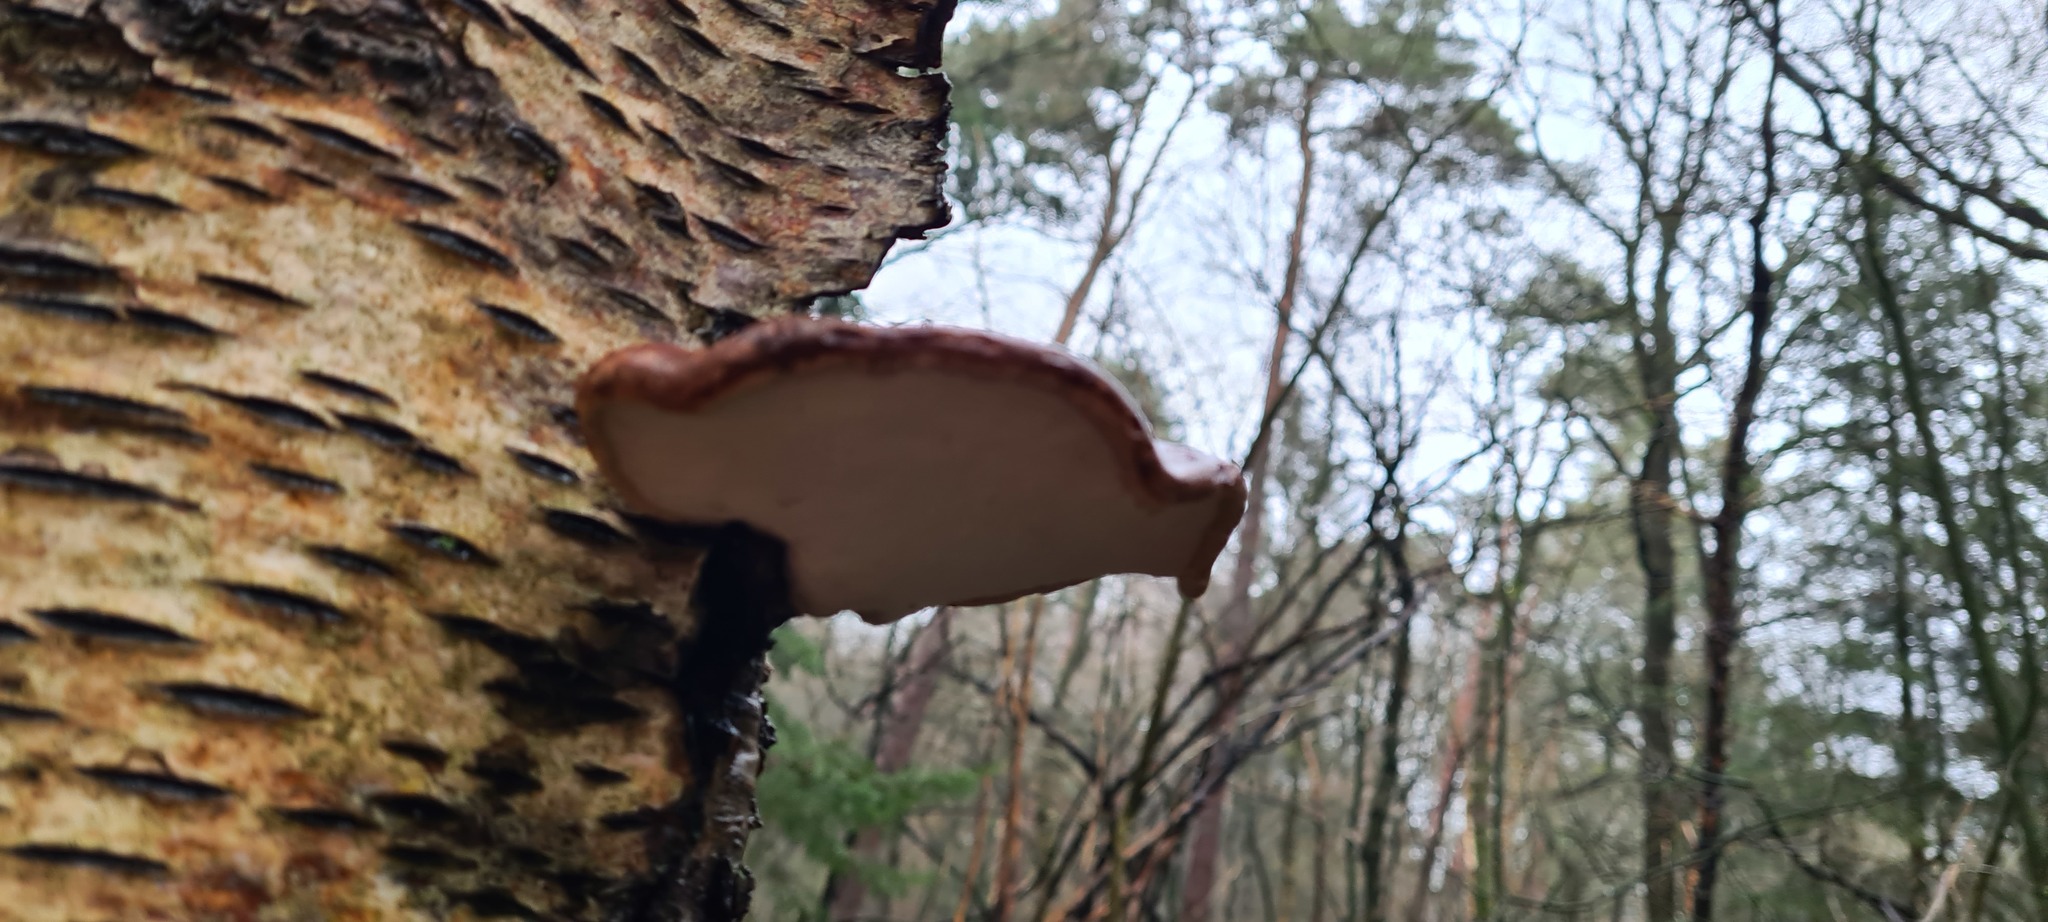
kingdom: Fungi
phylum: Basidiomycota
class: Agaricomycetes
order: Polyporales
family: Fomitopsidaceae
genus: Fomitopsis
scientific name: Fomitopsis betulina
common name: Birch polypore
